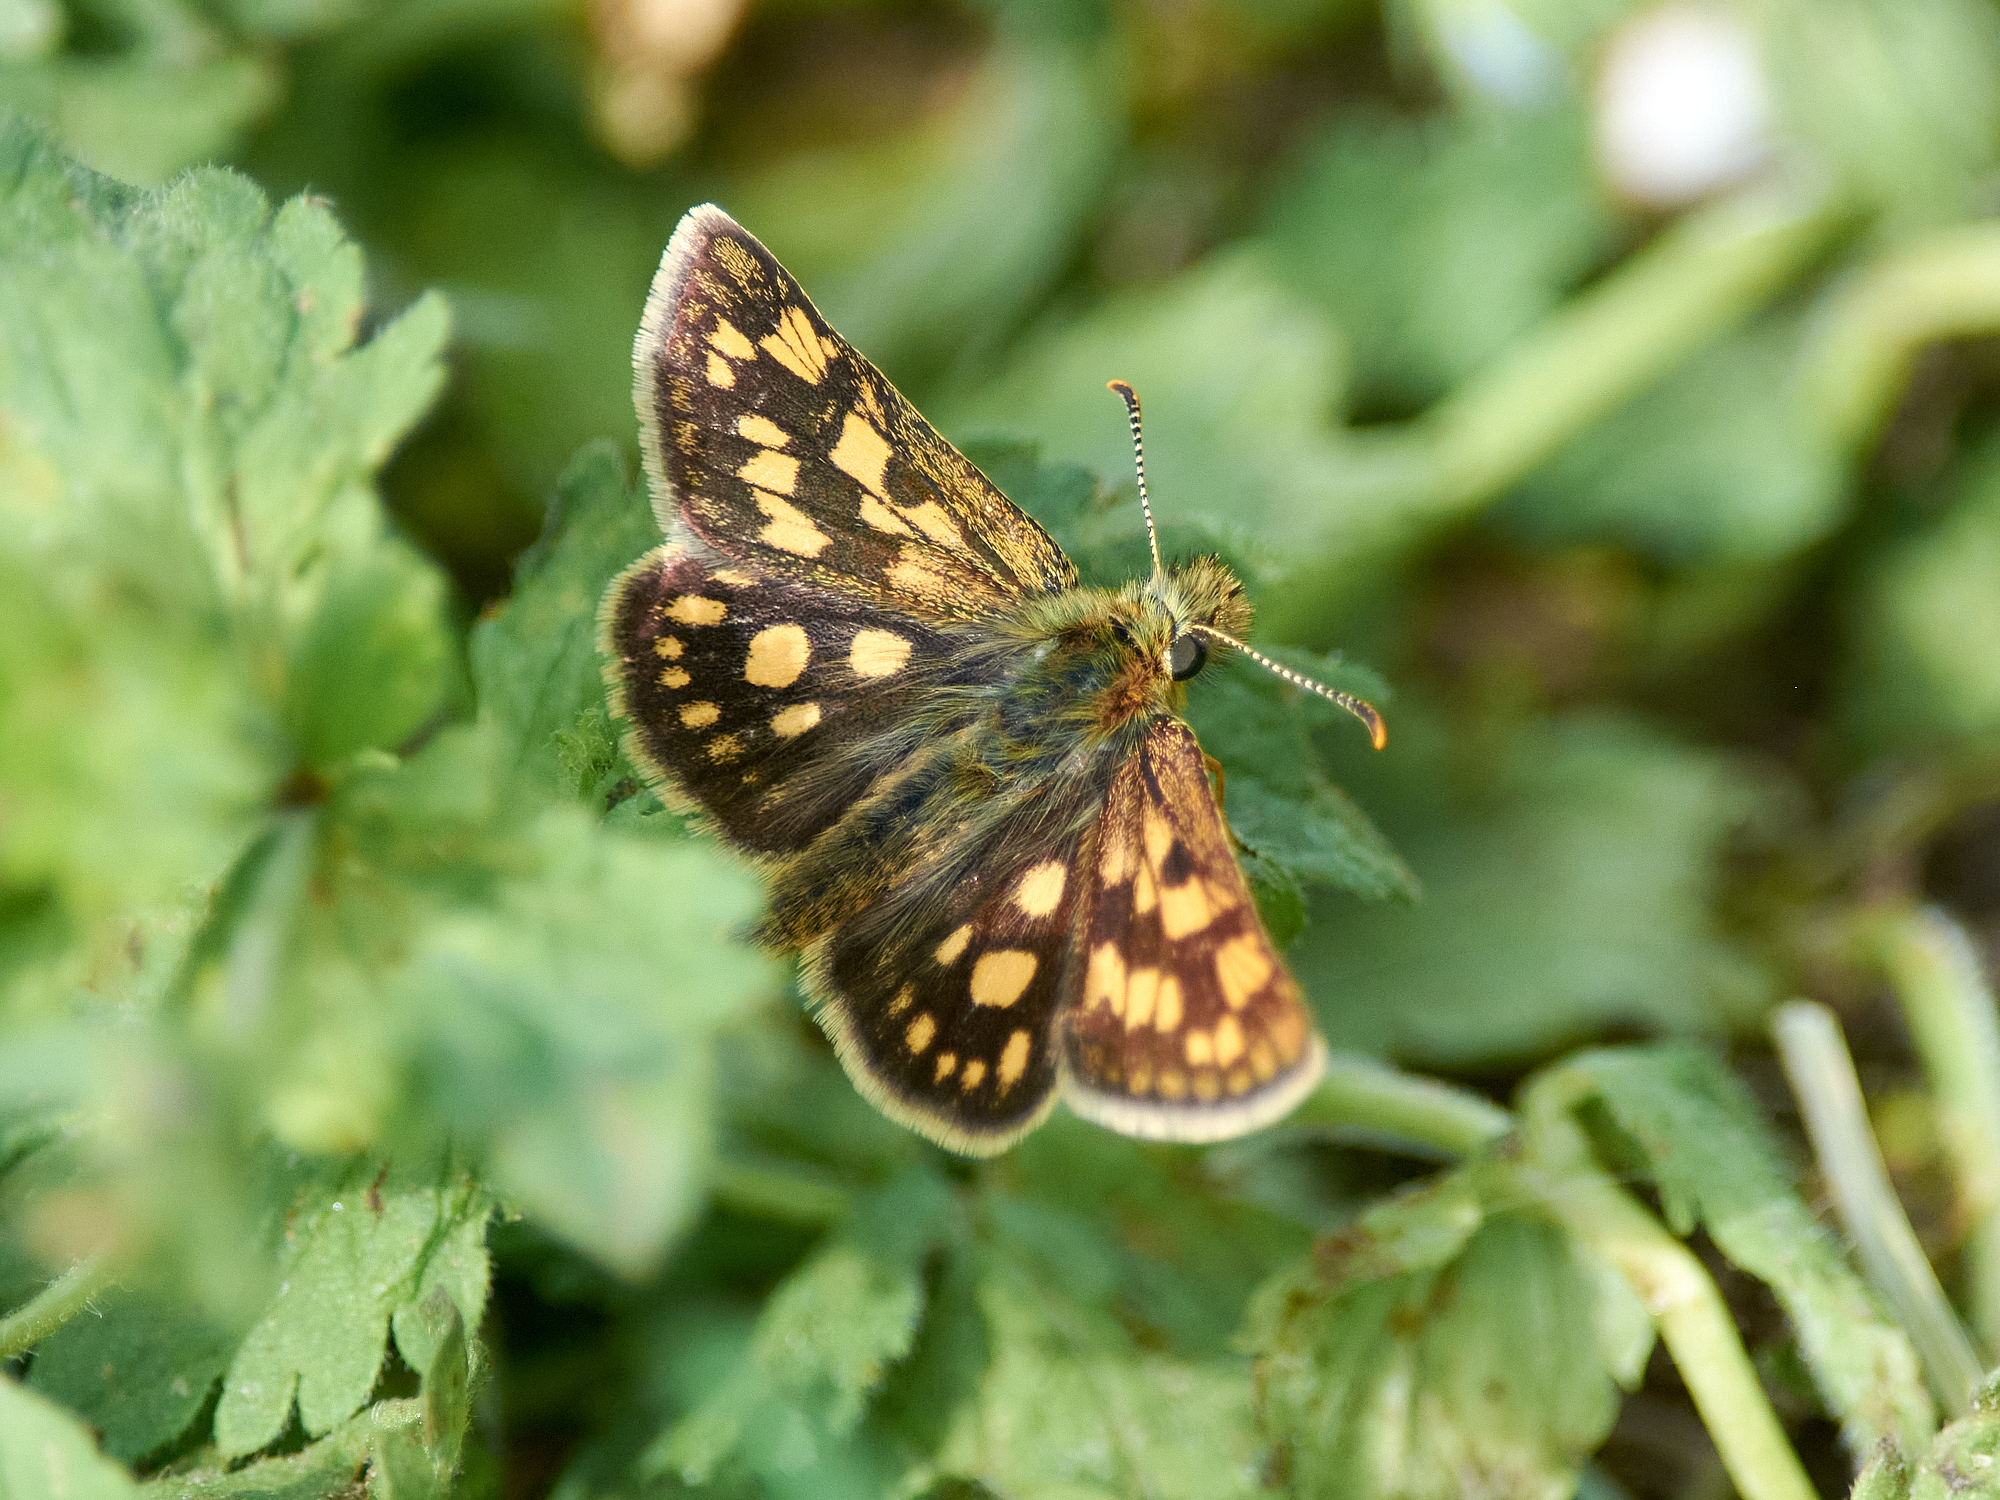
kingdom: Animalia
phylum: Arthropoda
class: Insecta
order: Lepidoptera
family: Hesperiidae
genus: Carterocephalus
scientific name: Carterocephalus palaemon
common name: Chequered skipper
